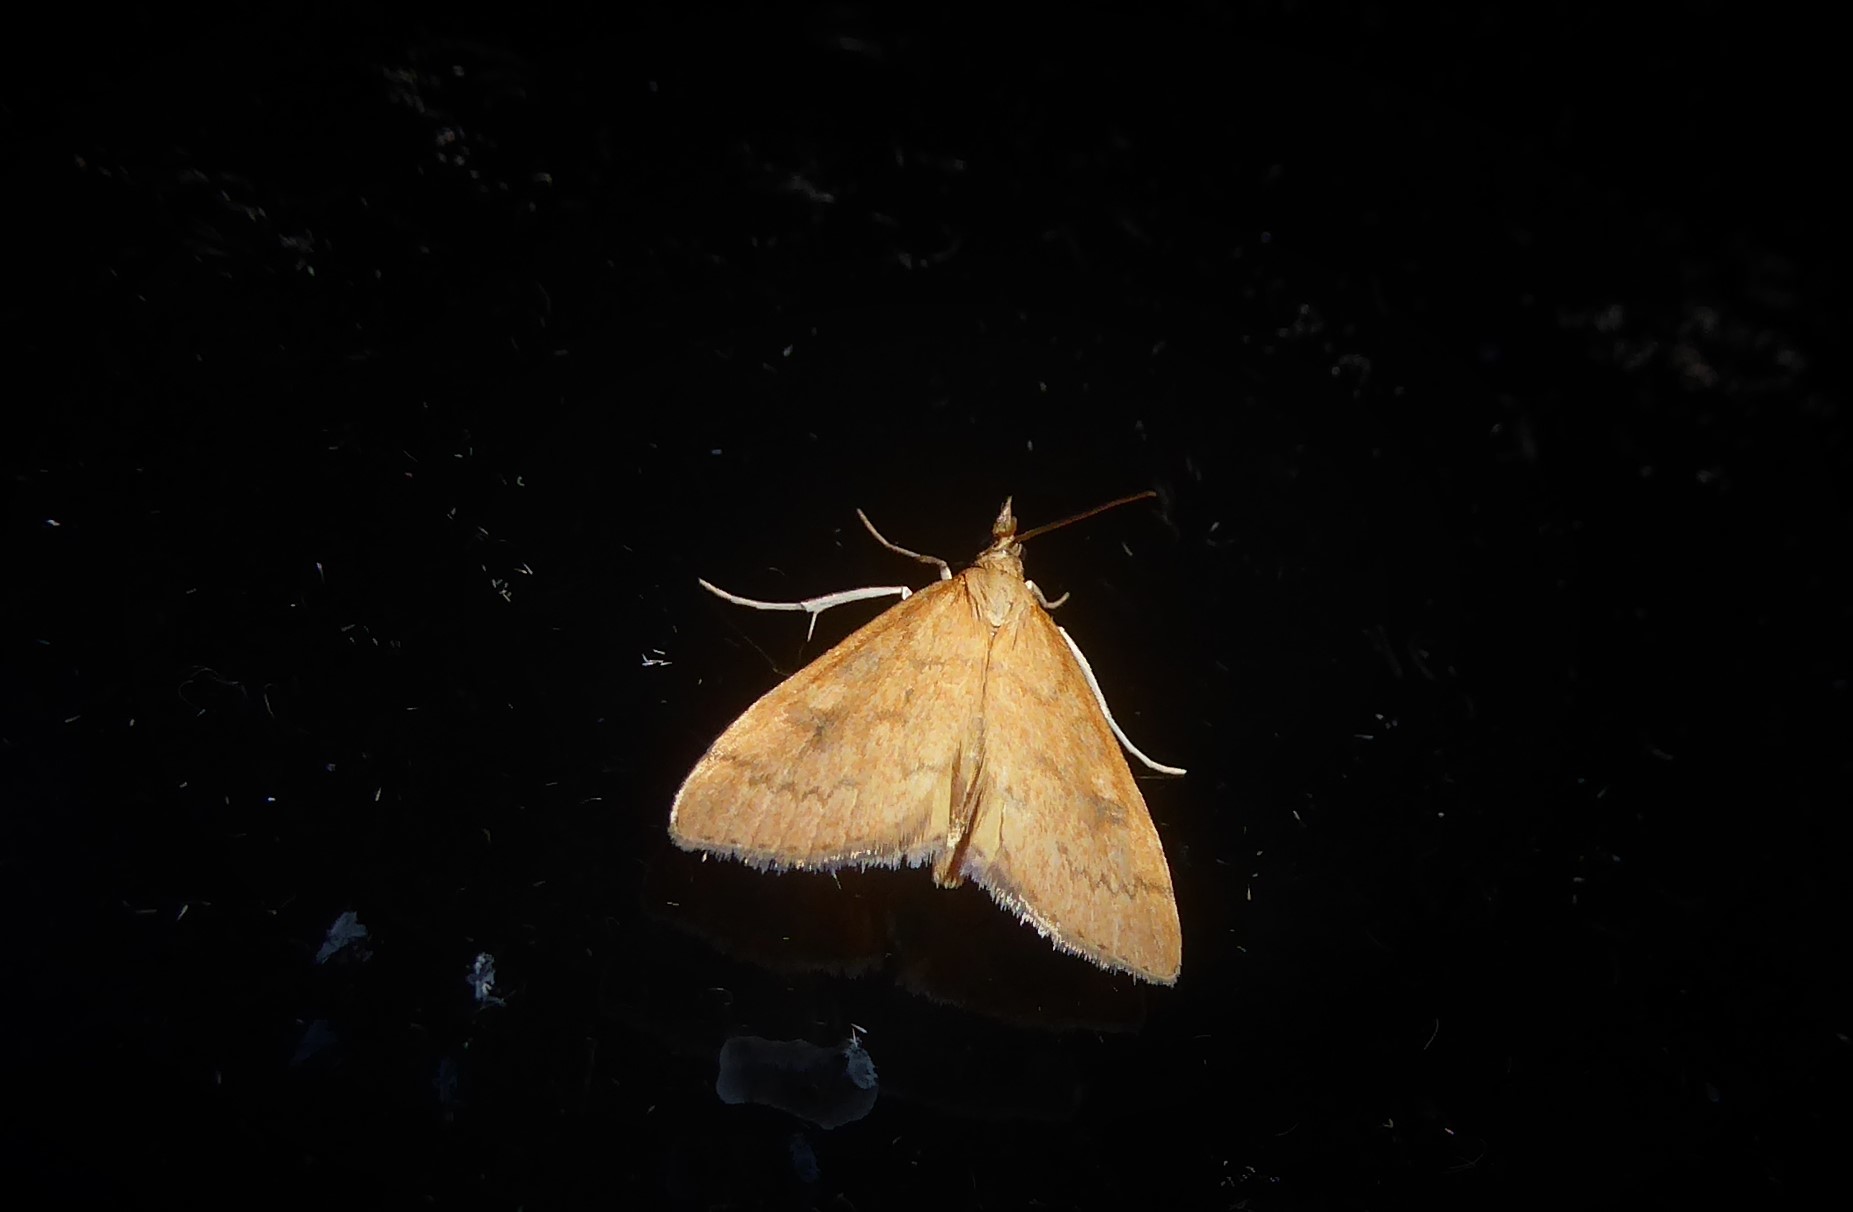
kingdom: Animalia
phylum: Arthropoda
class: Insecta
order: Lepidoptera
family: Crambidae
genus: Udea
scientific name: Udea Mnesictena flavidalis
